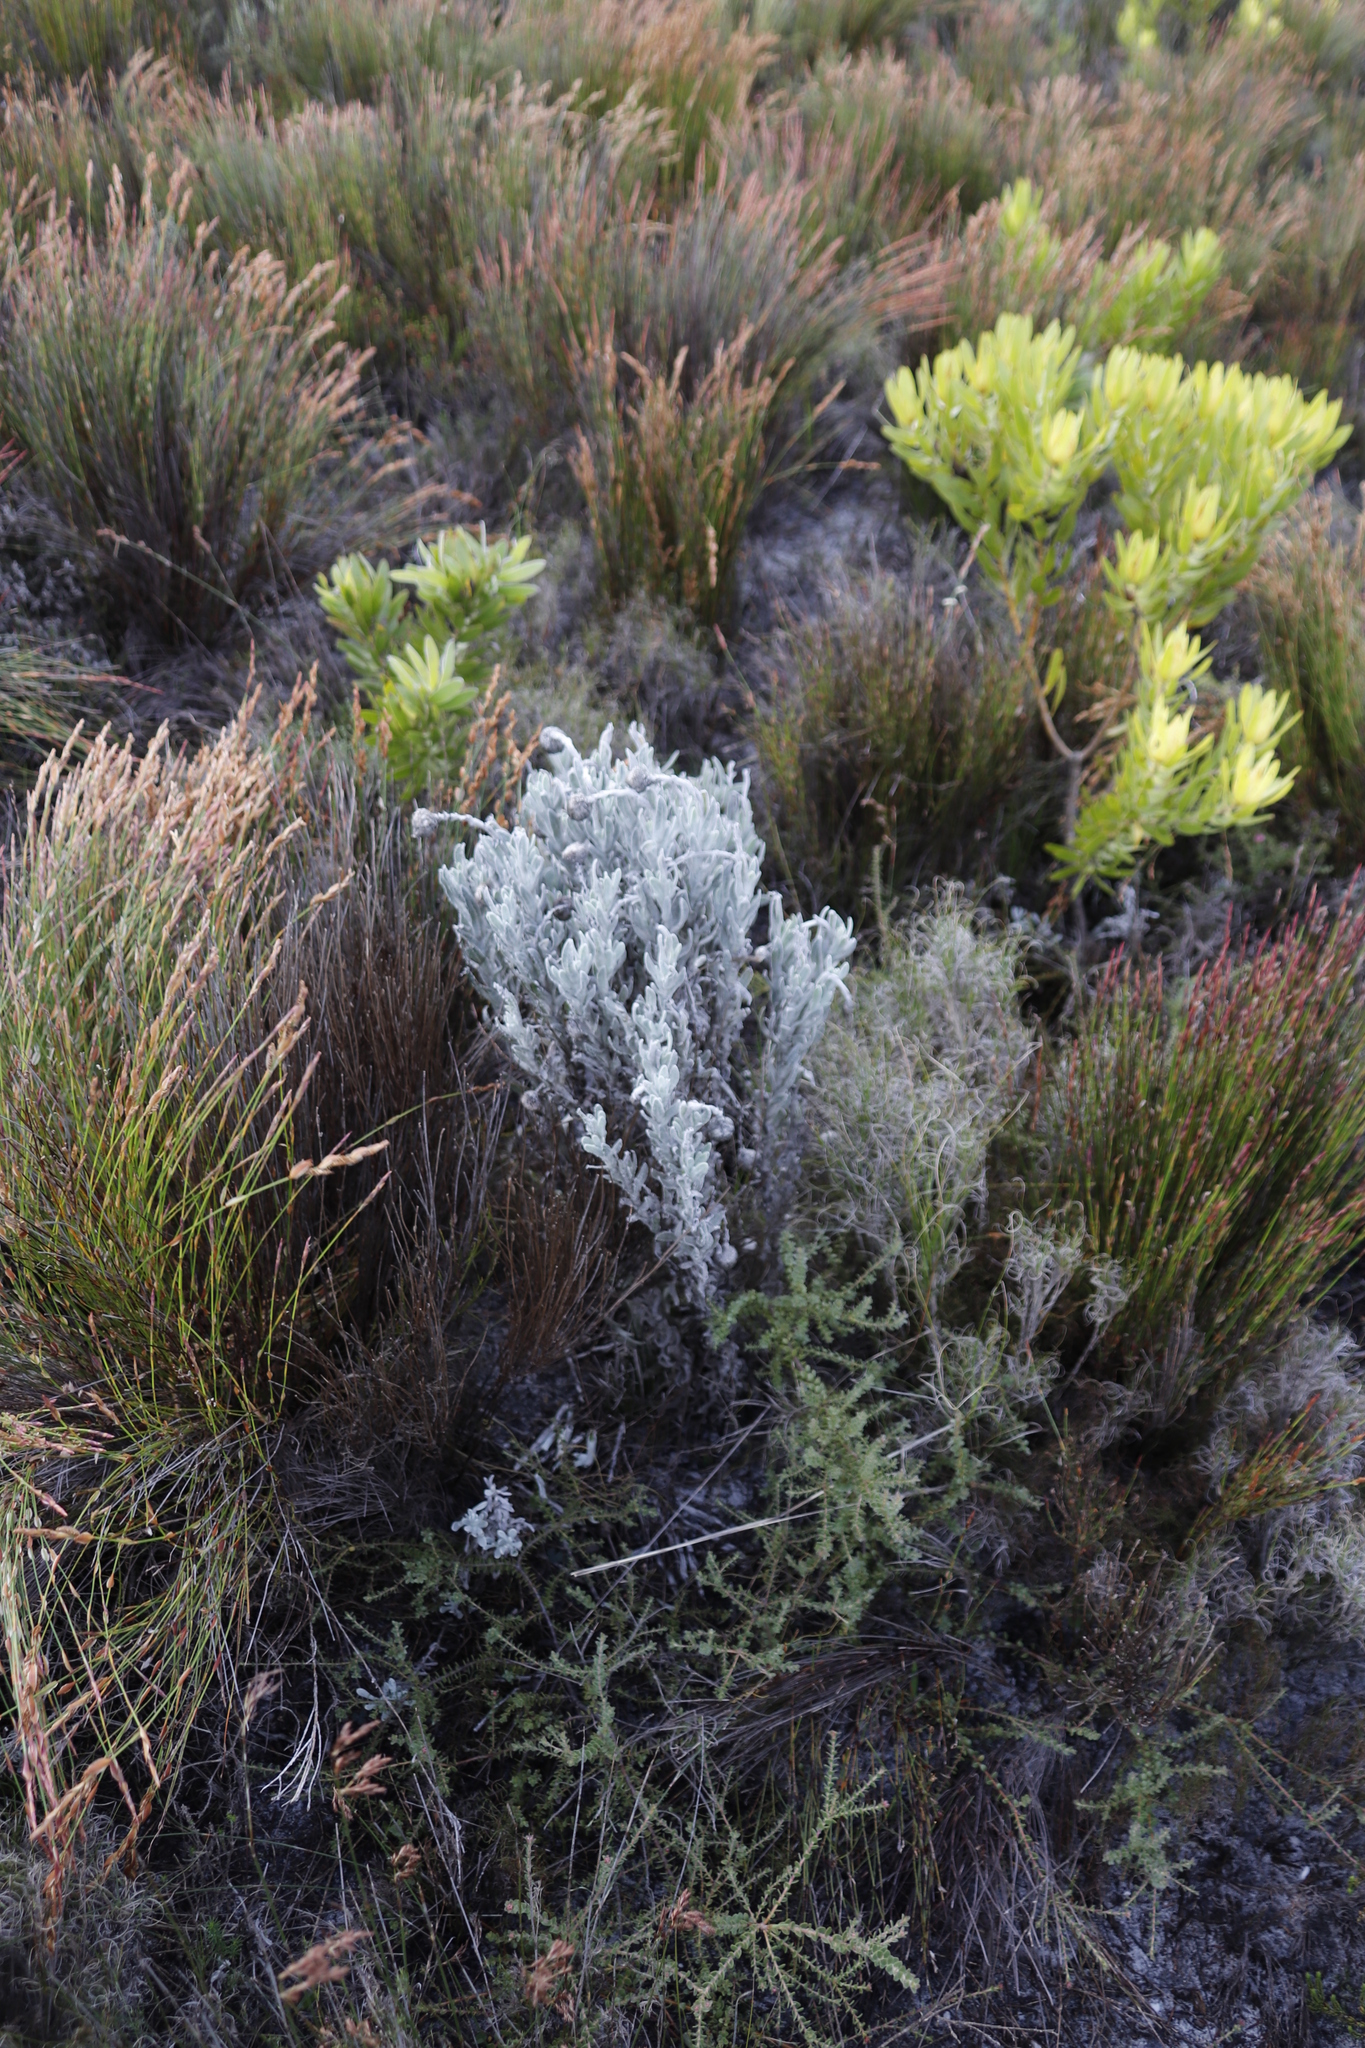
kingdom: Plantae
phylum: Tracheophyta
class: Magnoliopsida
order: Asterales
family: Asteraceae
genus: Syncarpha
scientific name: Syncarpha vestita
